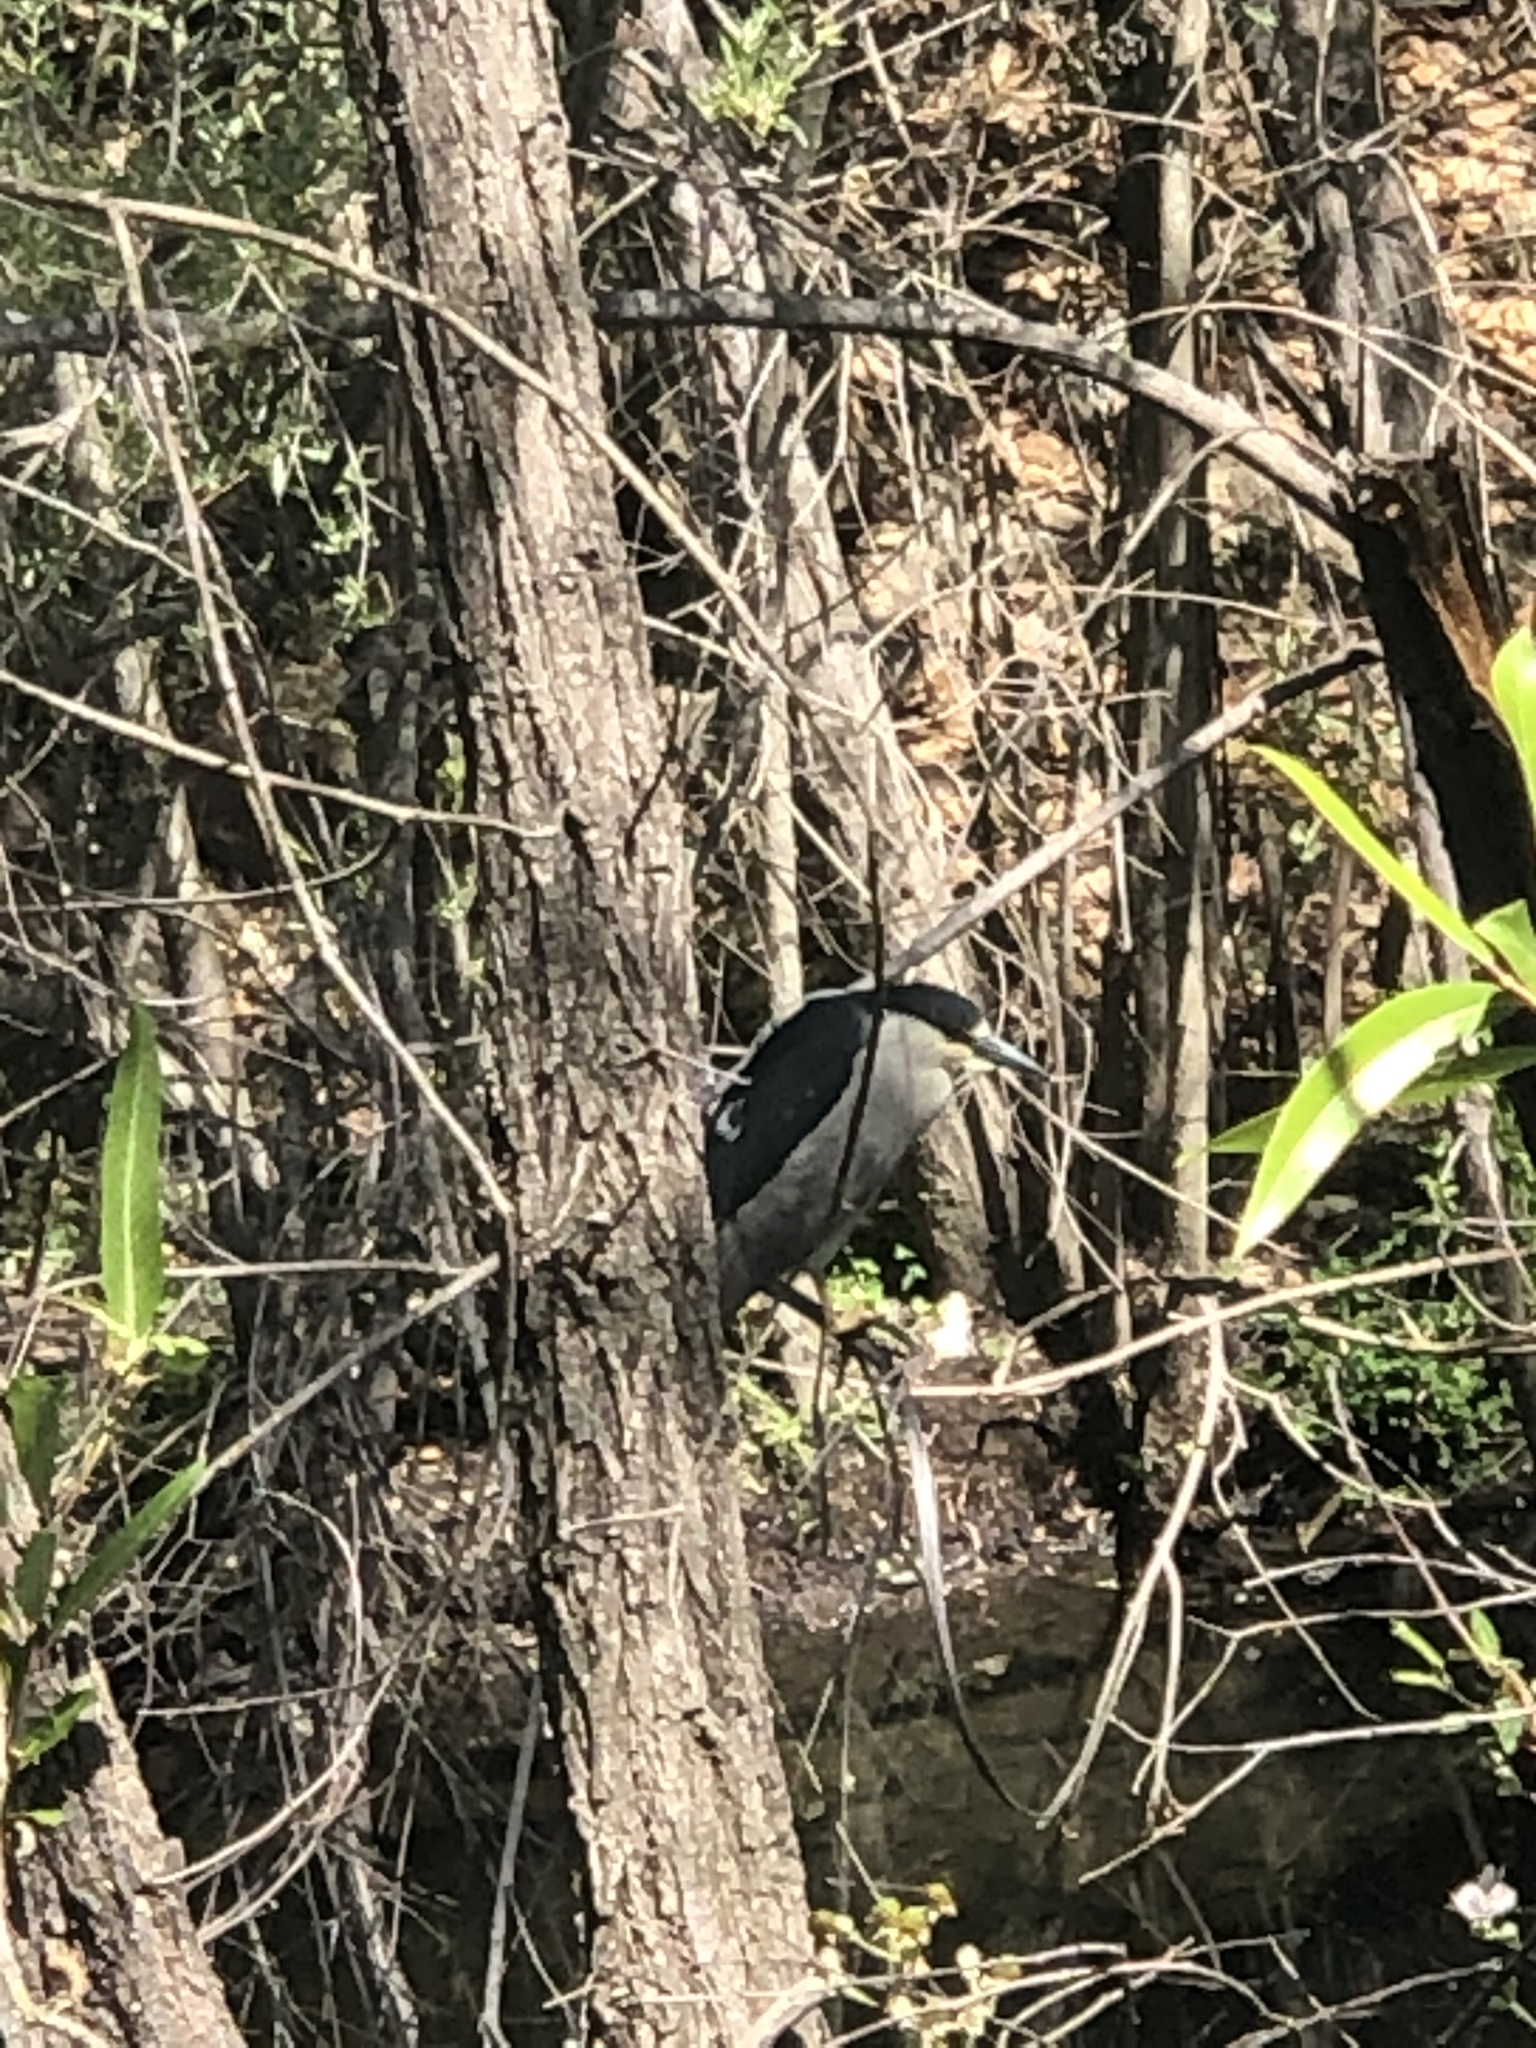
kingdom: Animalia
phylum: Chordata
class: Aves
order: Pelecaniformes
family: Ardeidae
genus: Nycticorax
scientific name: Nycticorax nycticorax
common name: Black-crowned night heron
